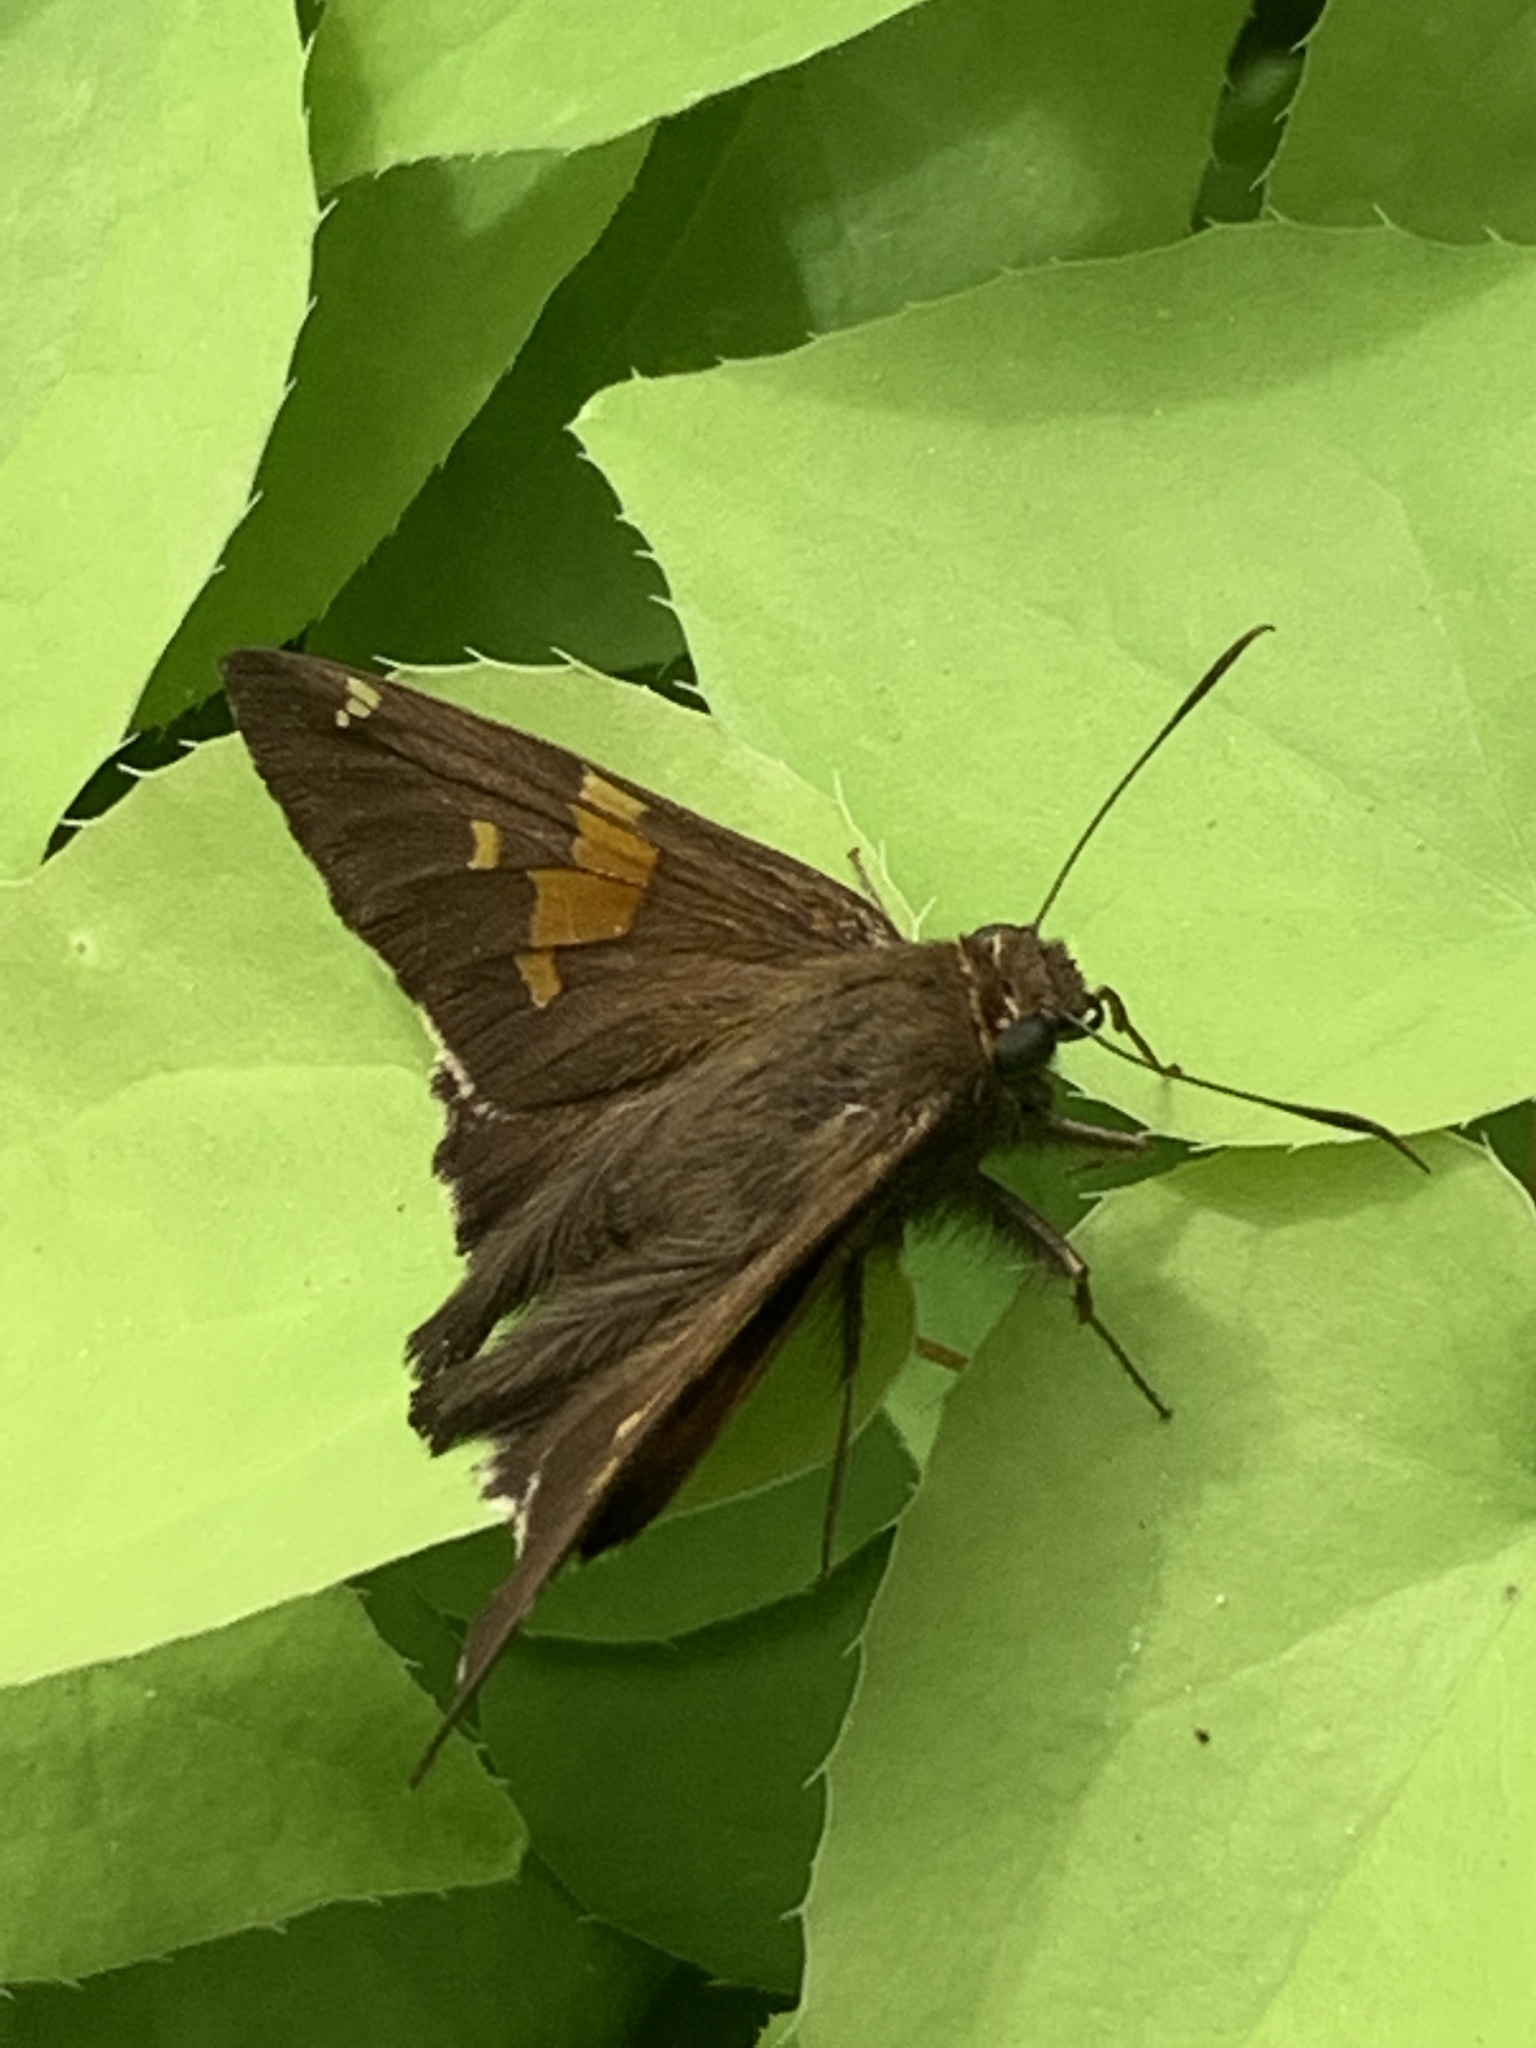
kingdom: Animalia
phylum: Arthropoda
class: Insecta
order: Lepidoptera
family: Hesperiidae
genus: Epargyreus
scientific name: Epargyreus clarus
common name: Silver-spotted skipper
